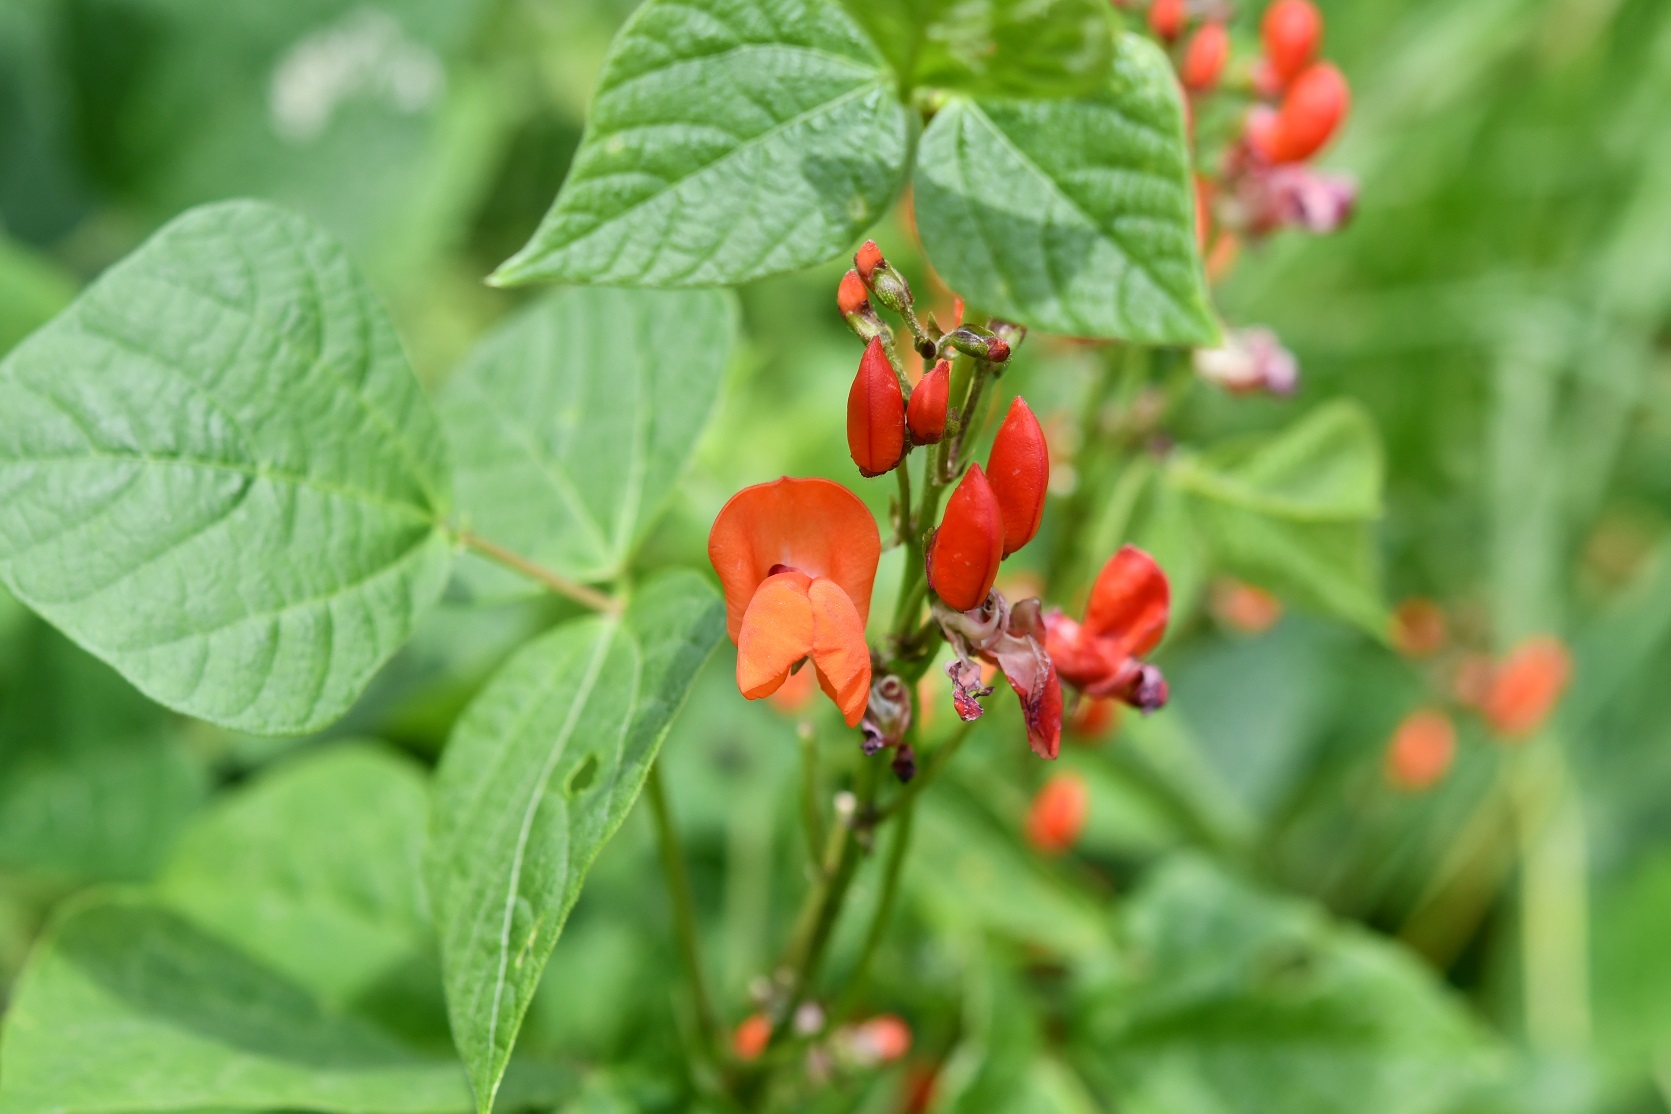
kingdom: Plantae
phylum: Tracheophyta
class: Magnoliopsida
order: Fabales
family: Fabaceae
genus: Phaseolus
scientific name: Phaseolus coccineus
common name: Runner bean
